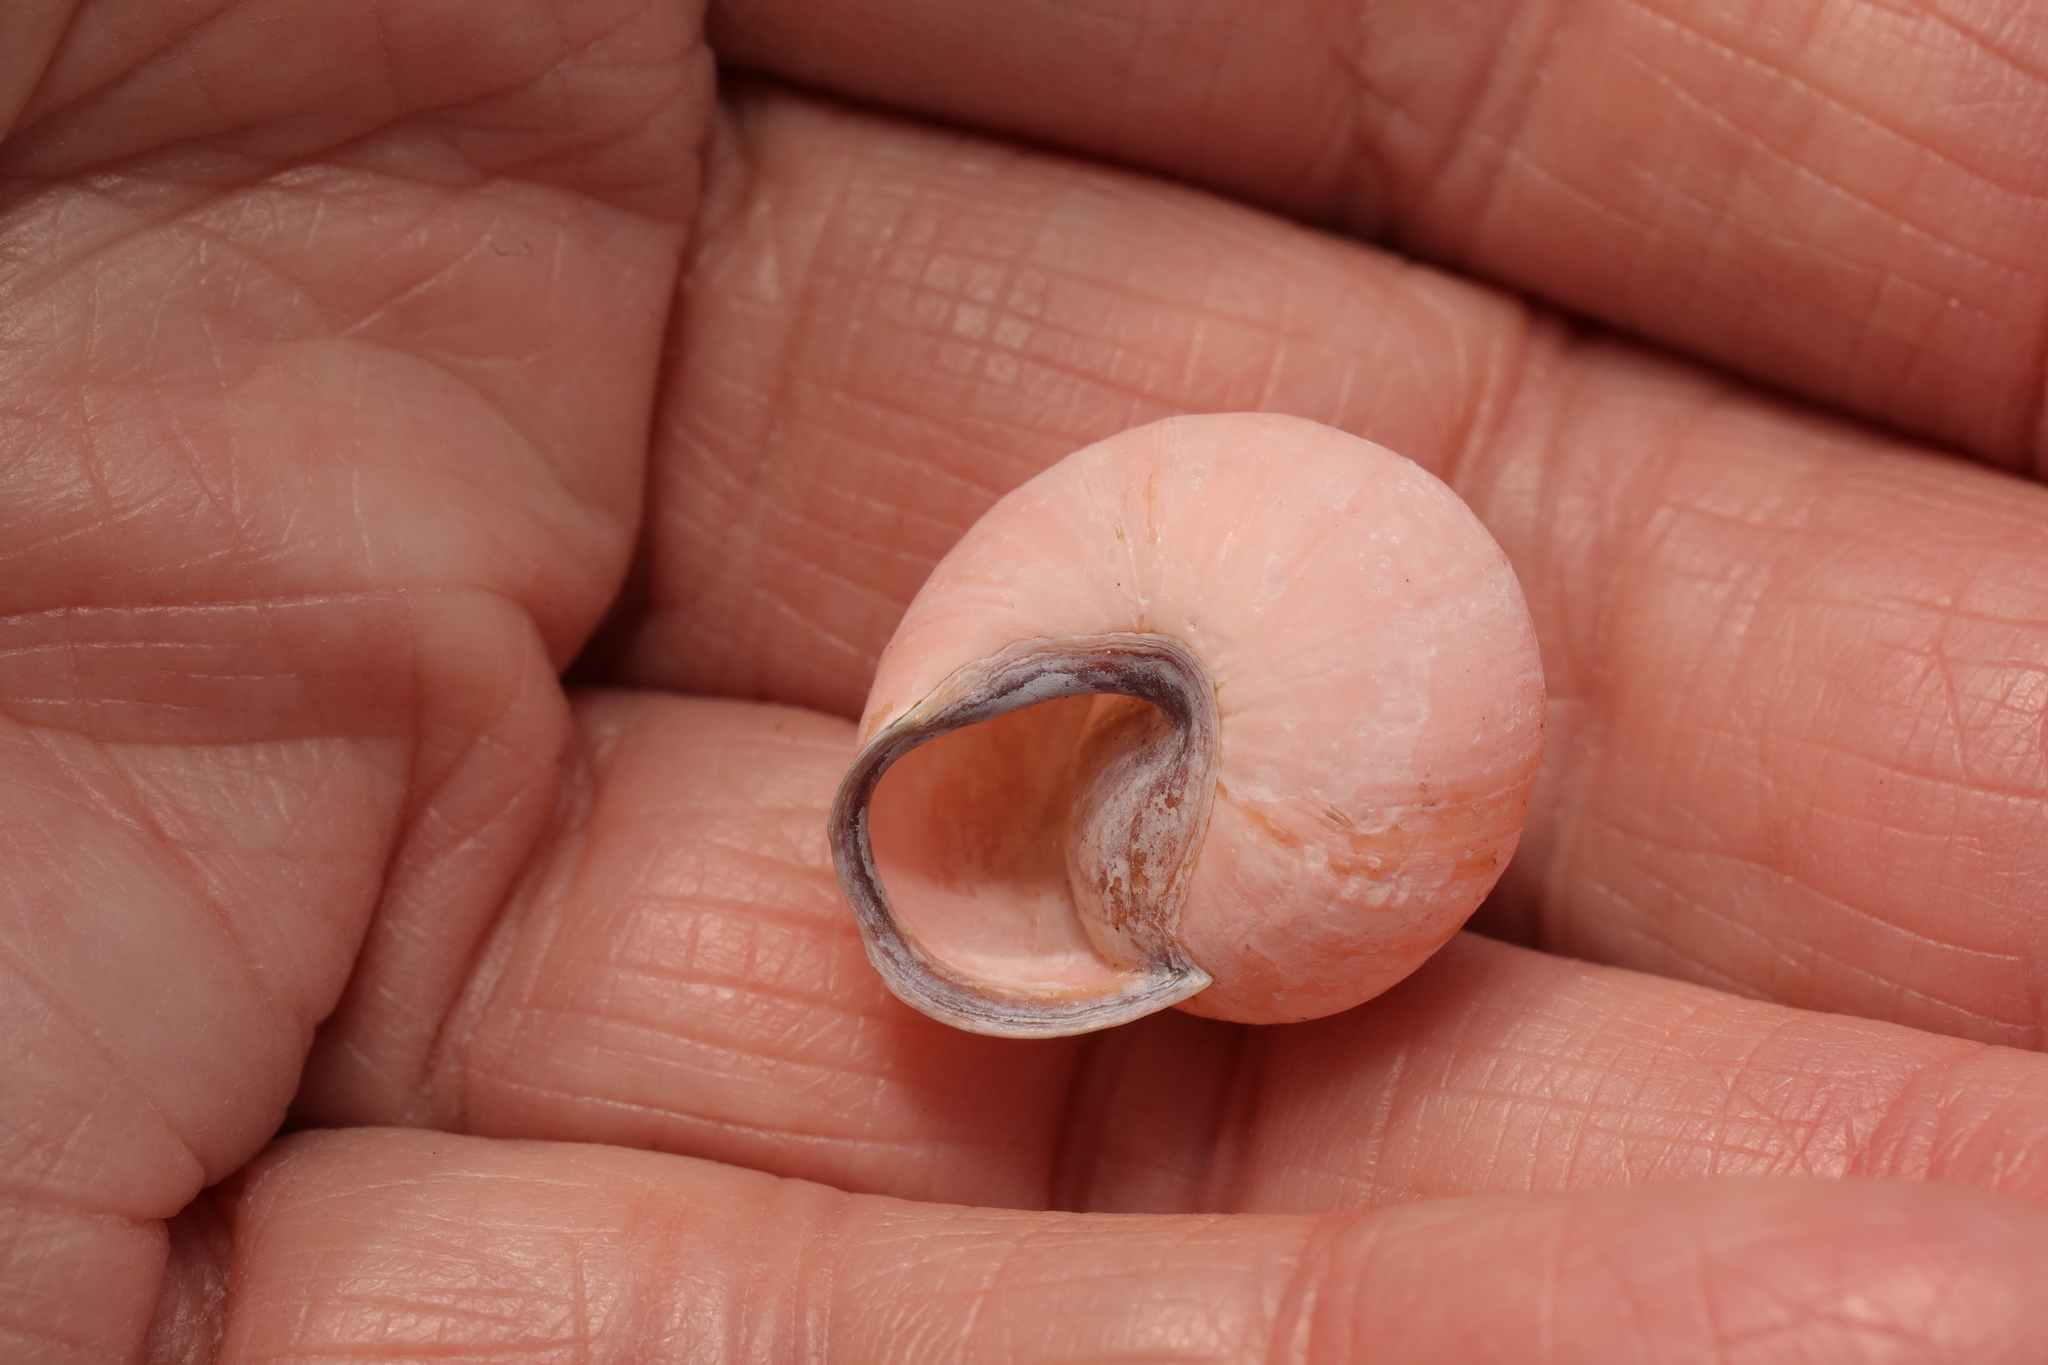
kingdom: Animalia
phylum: Mollusca
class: Gastropoda
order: Stylommatophora
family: Helicidae
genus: Cepaea
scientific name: Cepaea nemoralis
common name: Grovesnail
